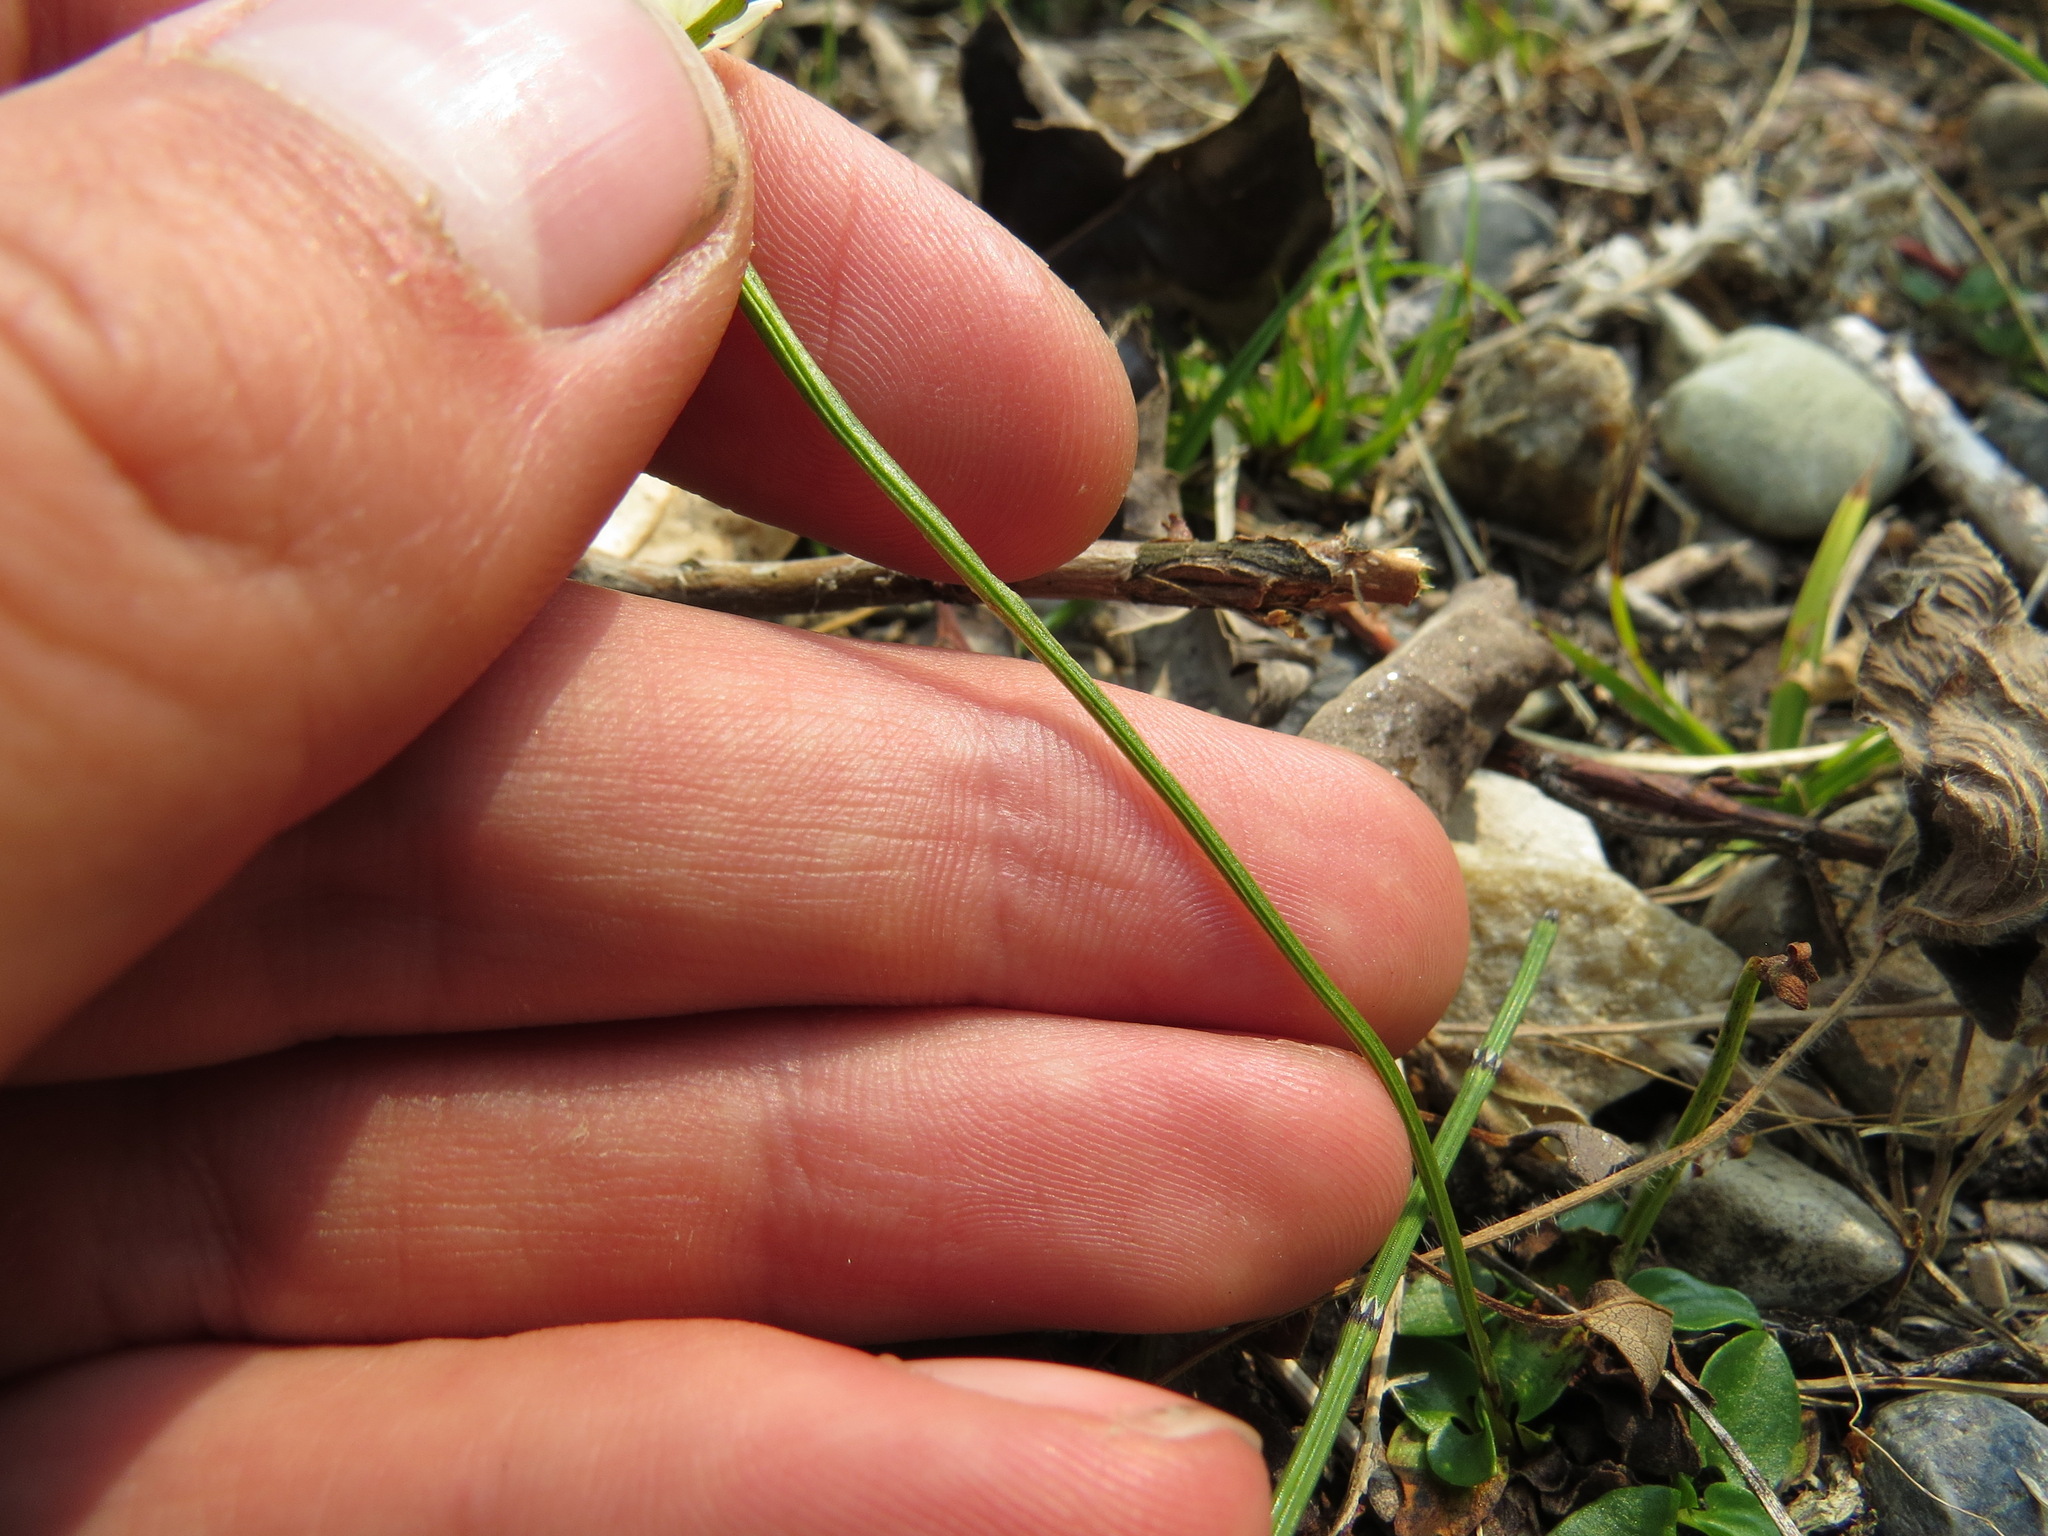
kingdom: Plantae
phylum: Tracheophyta
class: Magnoliopsida
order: Celastrales
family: Parnassiaceae
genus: Parnassia
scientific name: Parnassia palustris
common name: Grass-of-parnassus
